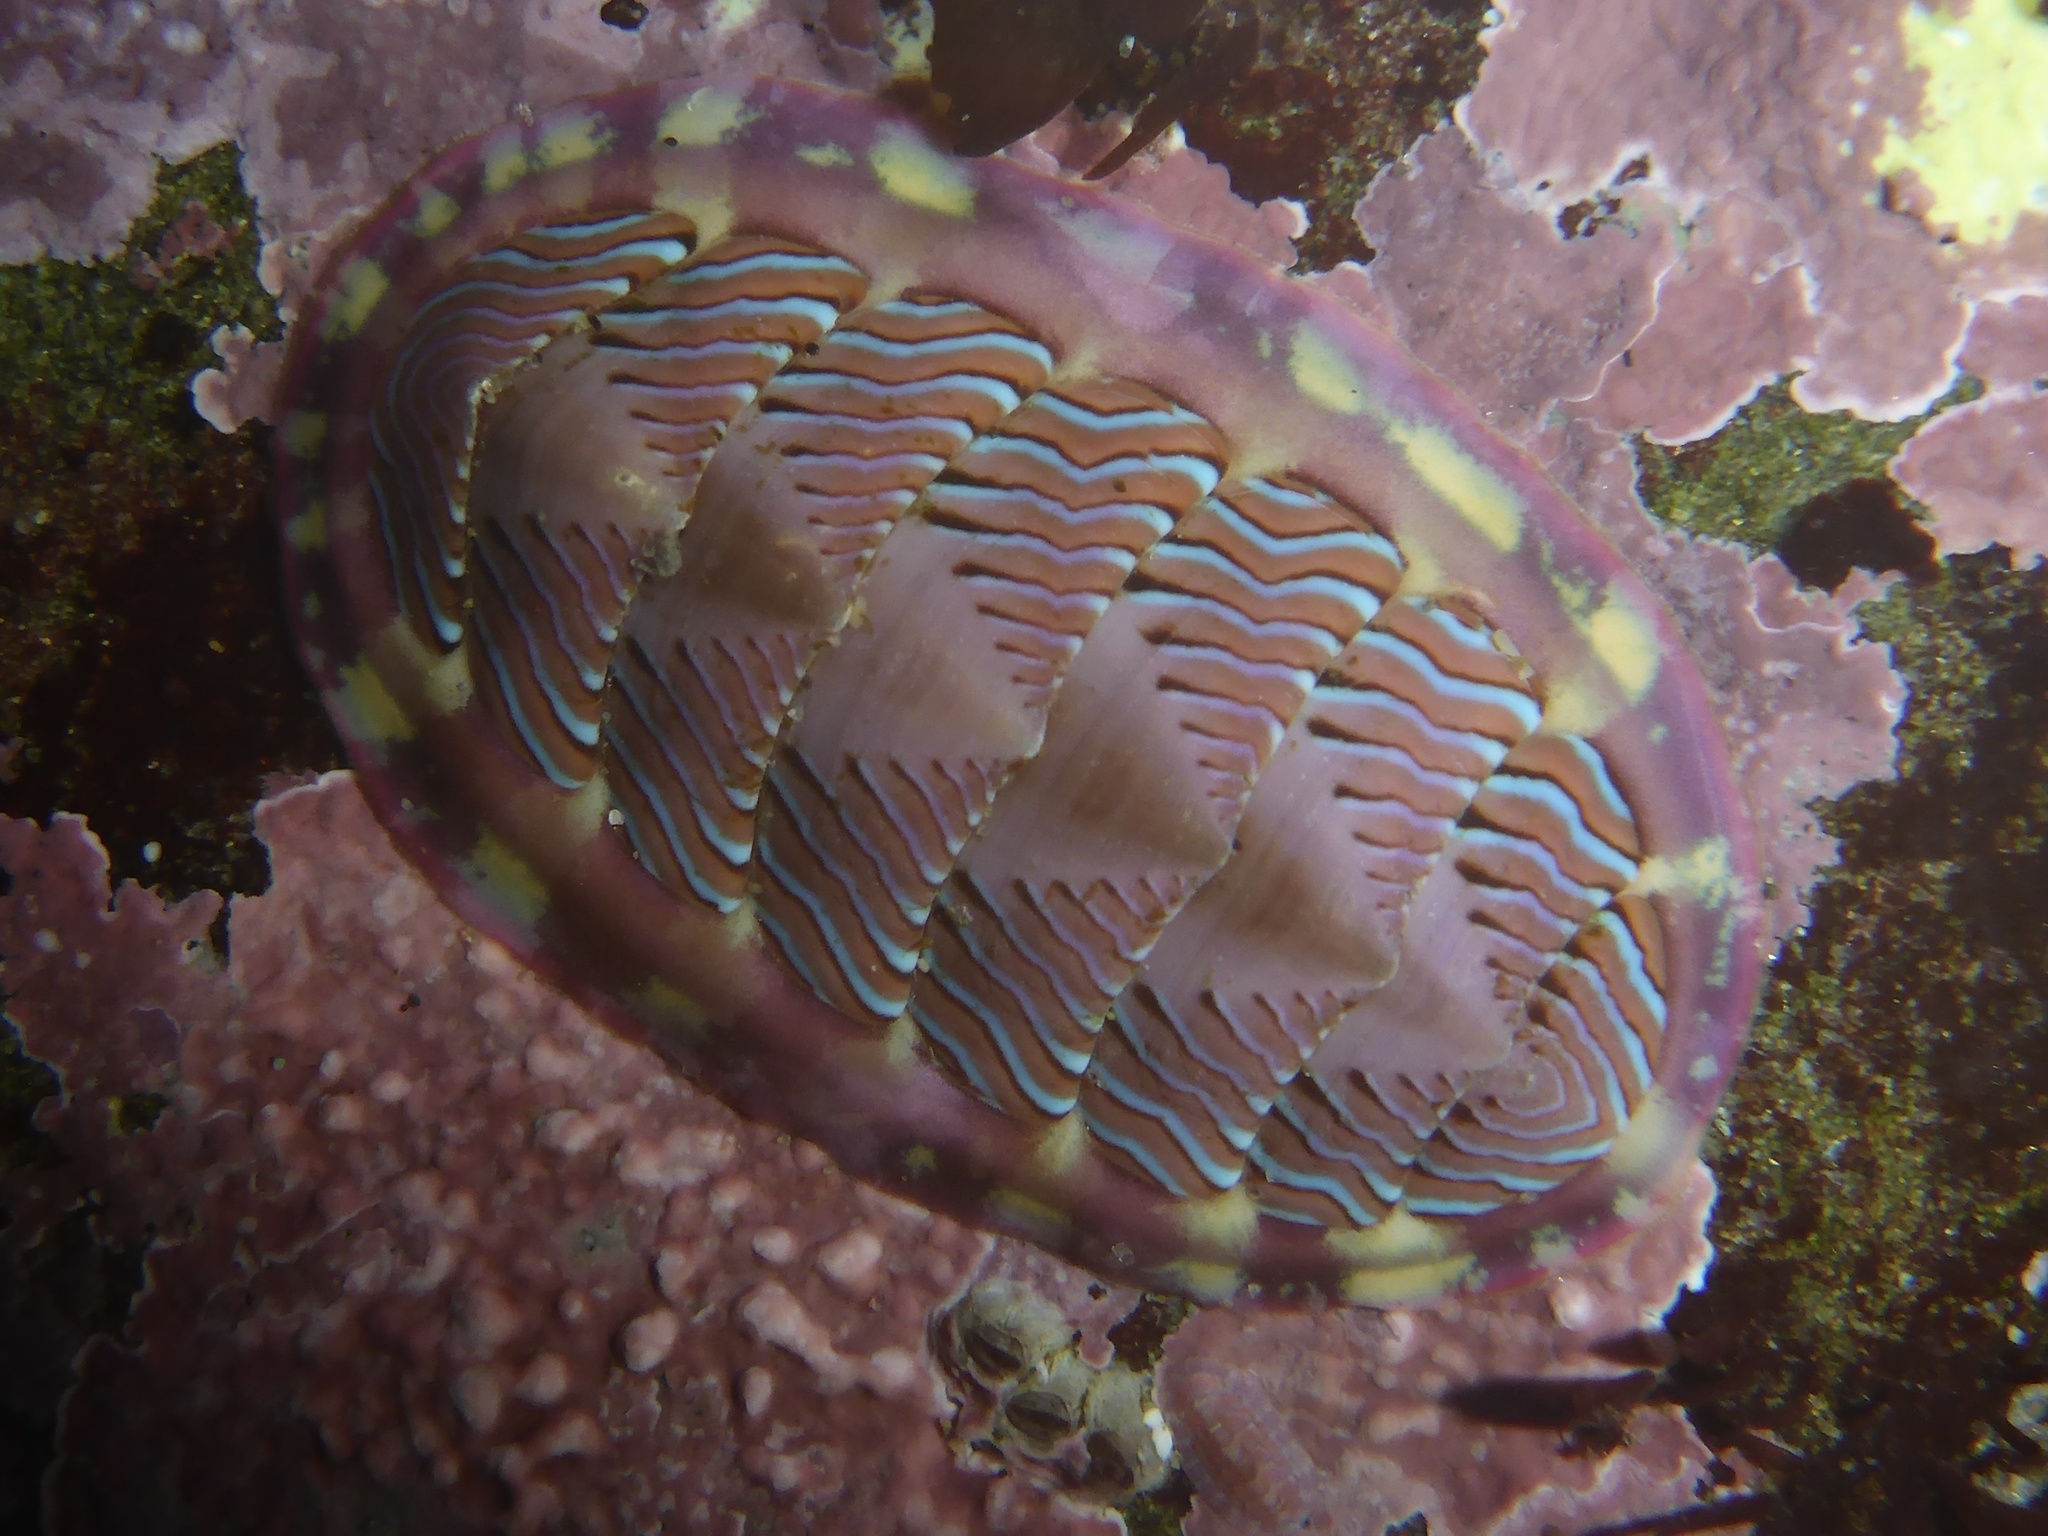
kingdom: Animalia
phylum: Mollusca
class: Polyplacophora
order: Chitonida
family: Tonicellidae
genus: Tonicella
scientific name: Tonicella lineata
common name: Lined chiton
